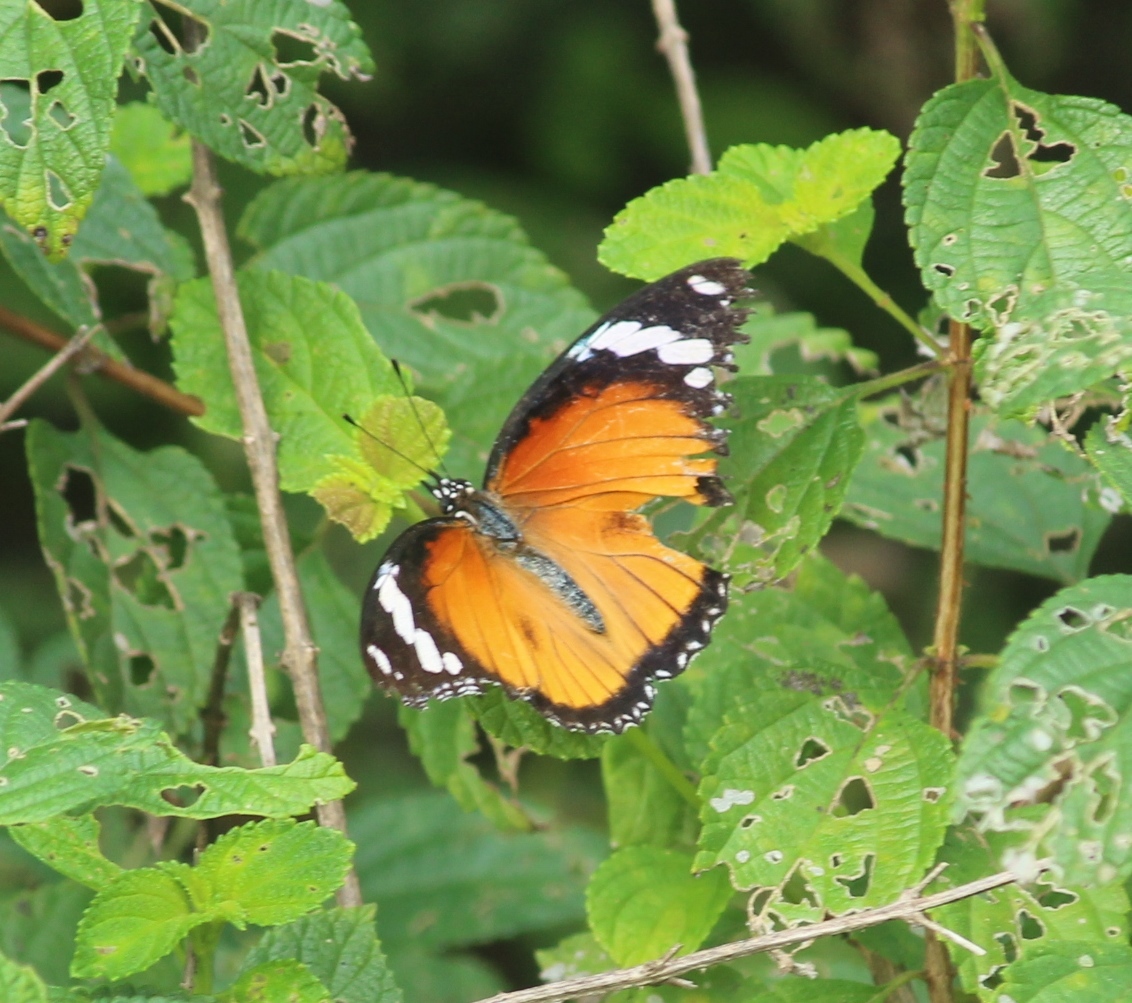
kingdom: Animalia
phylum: Arthropoda
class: Insecta
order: Lepidoptera
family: Nymphalidae
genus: Hypolimnas
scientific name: Hypolimnas misippus
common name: False plain tiger
